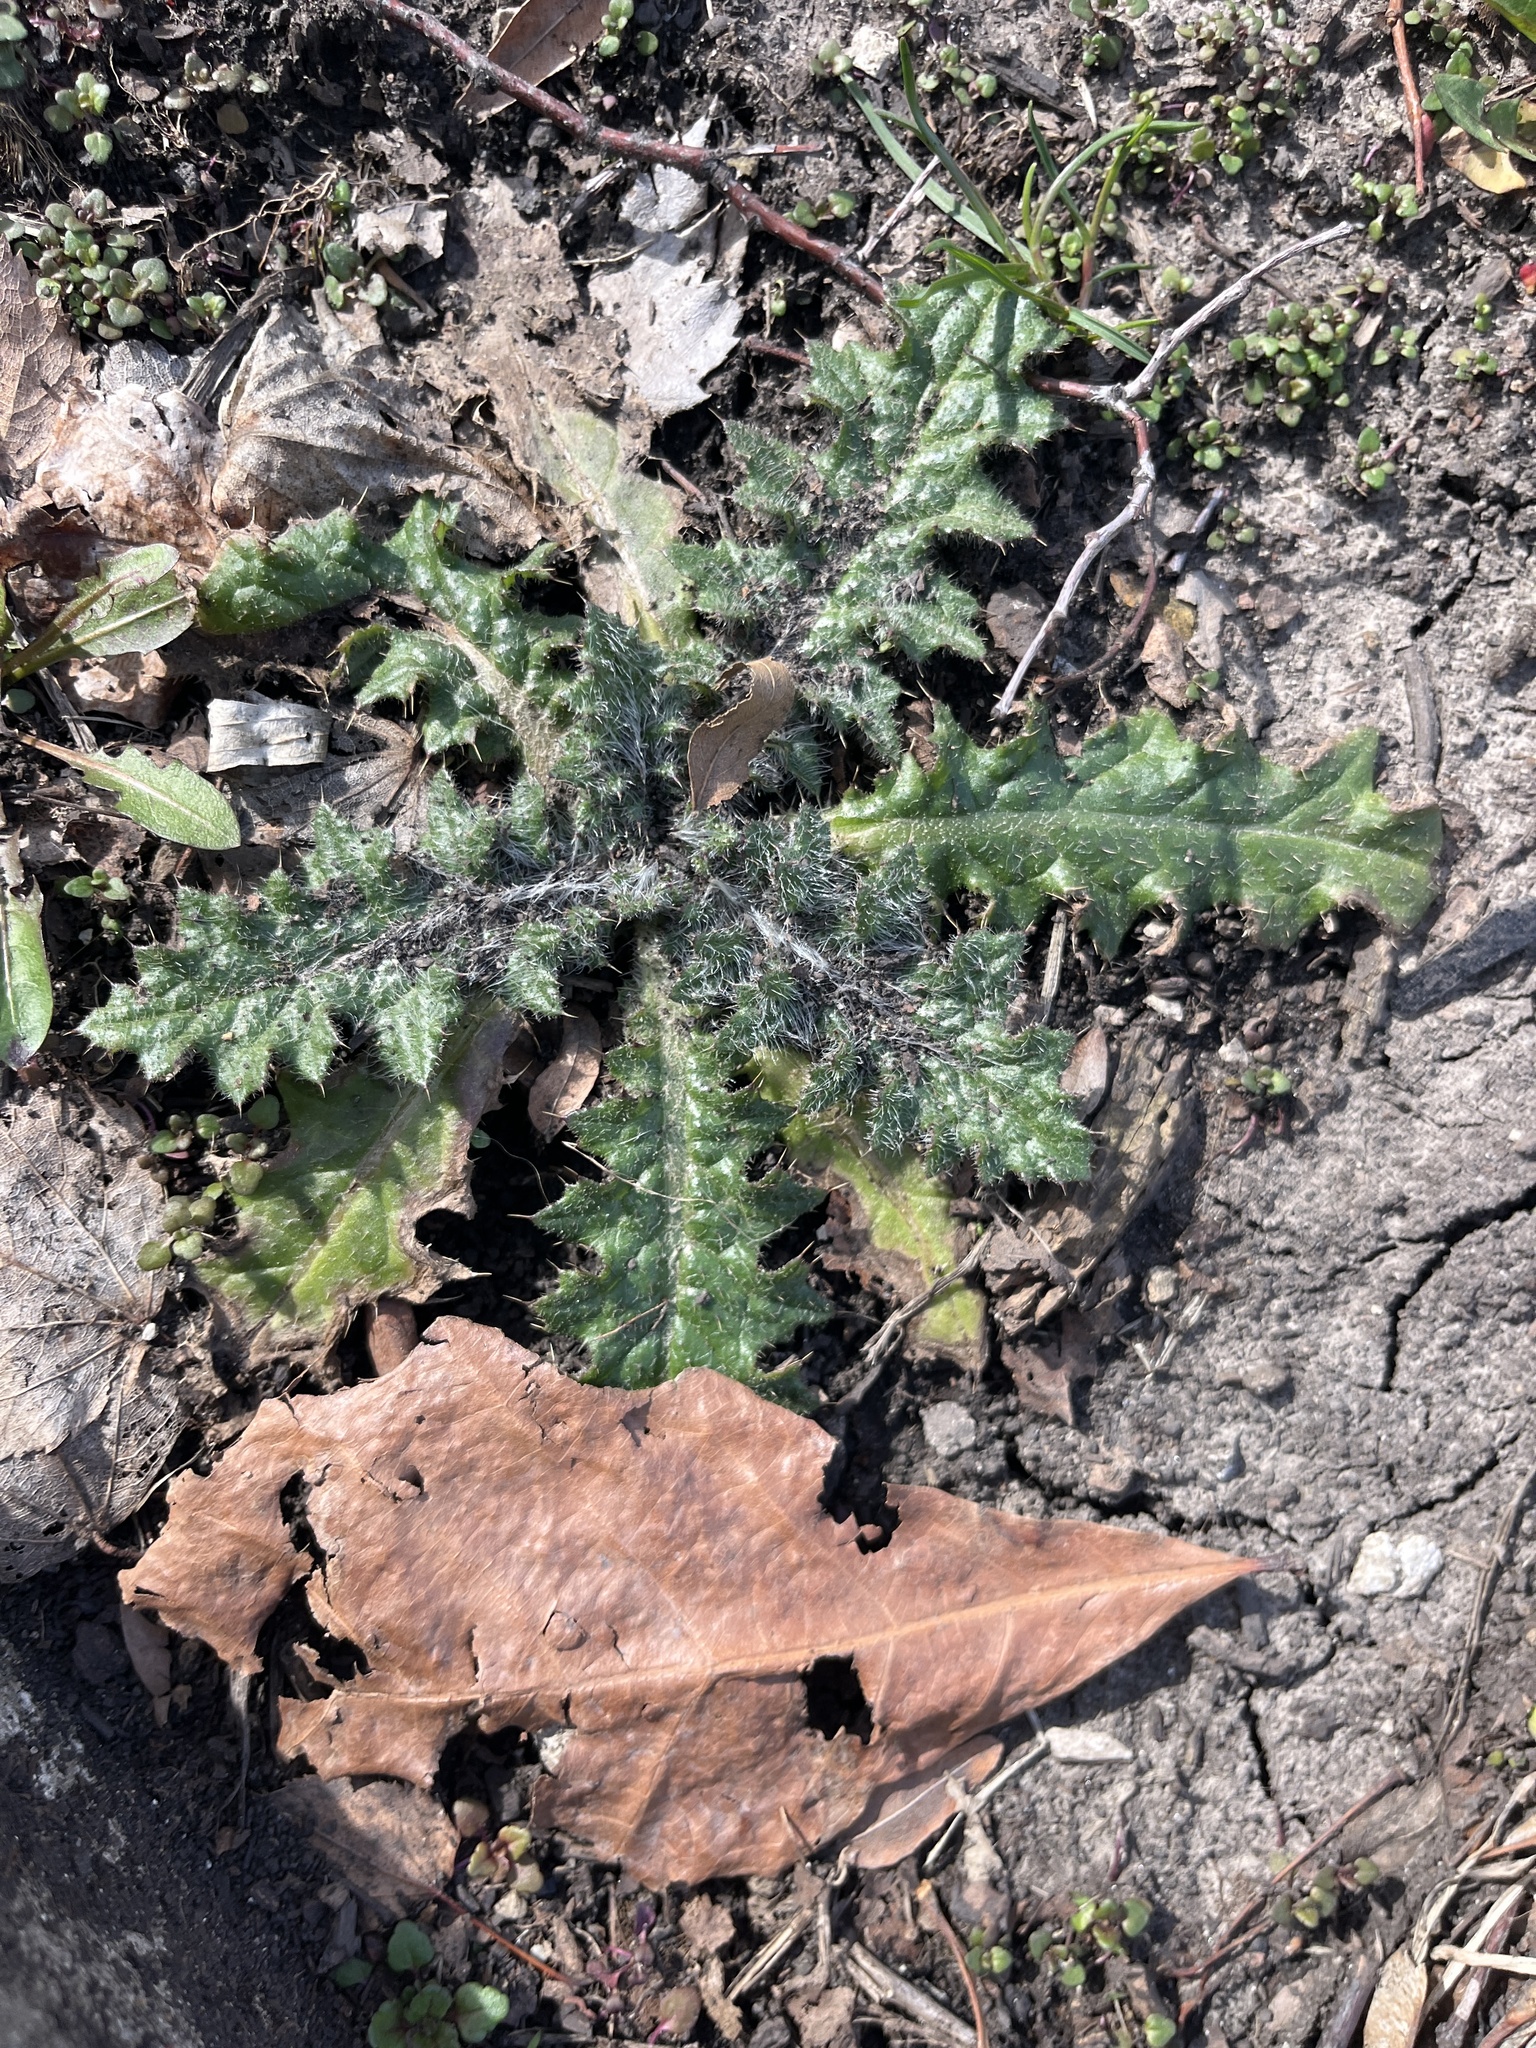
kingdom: Plantae
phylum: Tracheophyta
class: Magnoliopsida
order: Asterales
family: Asteraceae
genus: Cirsium
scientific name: Cirsium vulgare
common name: Bull thistle
